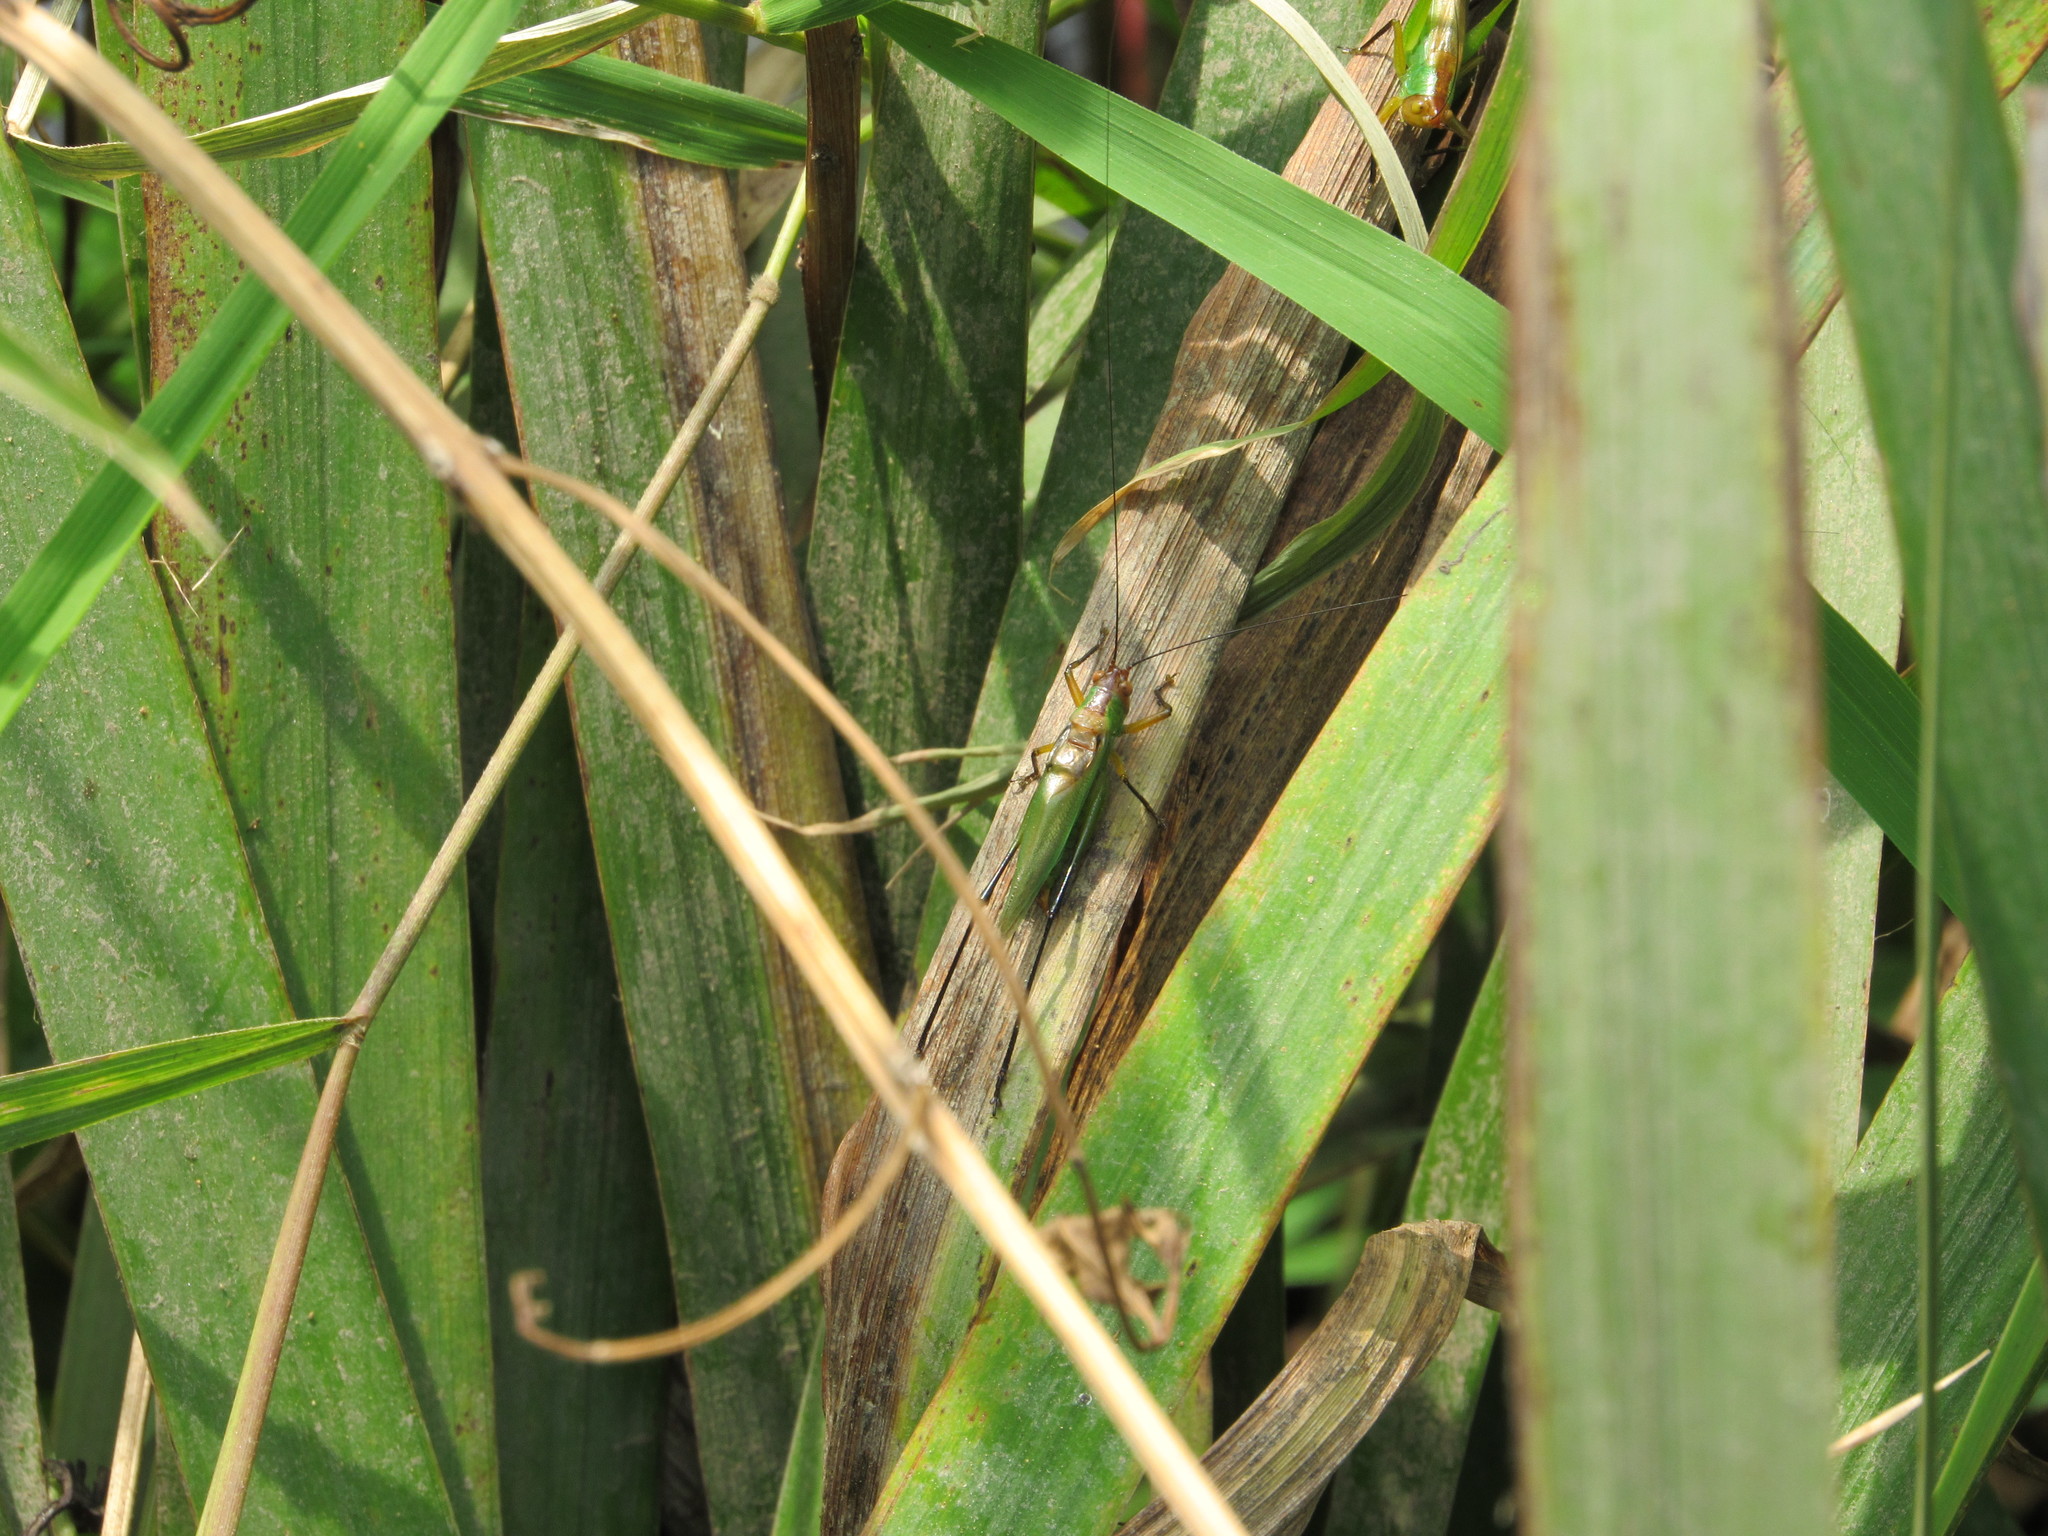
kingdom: Animalia
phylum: Arthropoda
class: Insecta
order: Orthoptera
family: Tettigoniidae
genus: Orchelimum
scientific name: Orchelimum nigripes
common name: Black-legged meadow katydid
